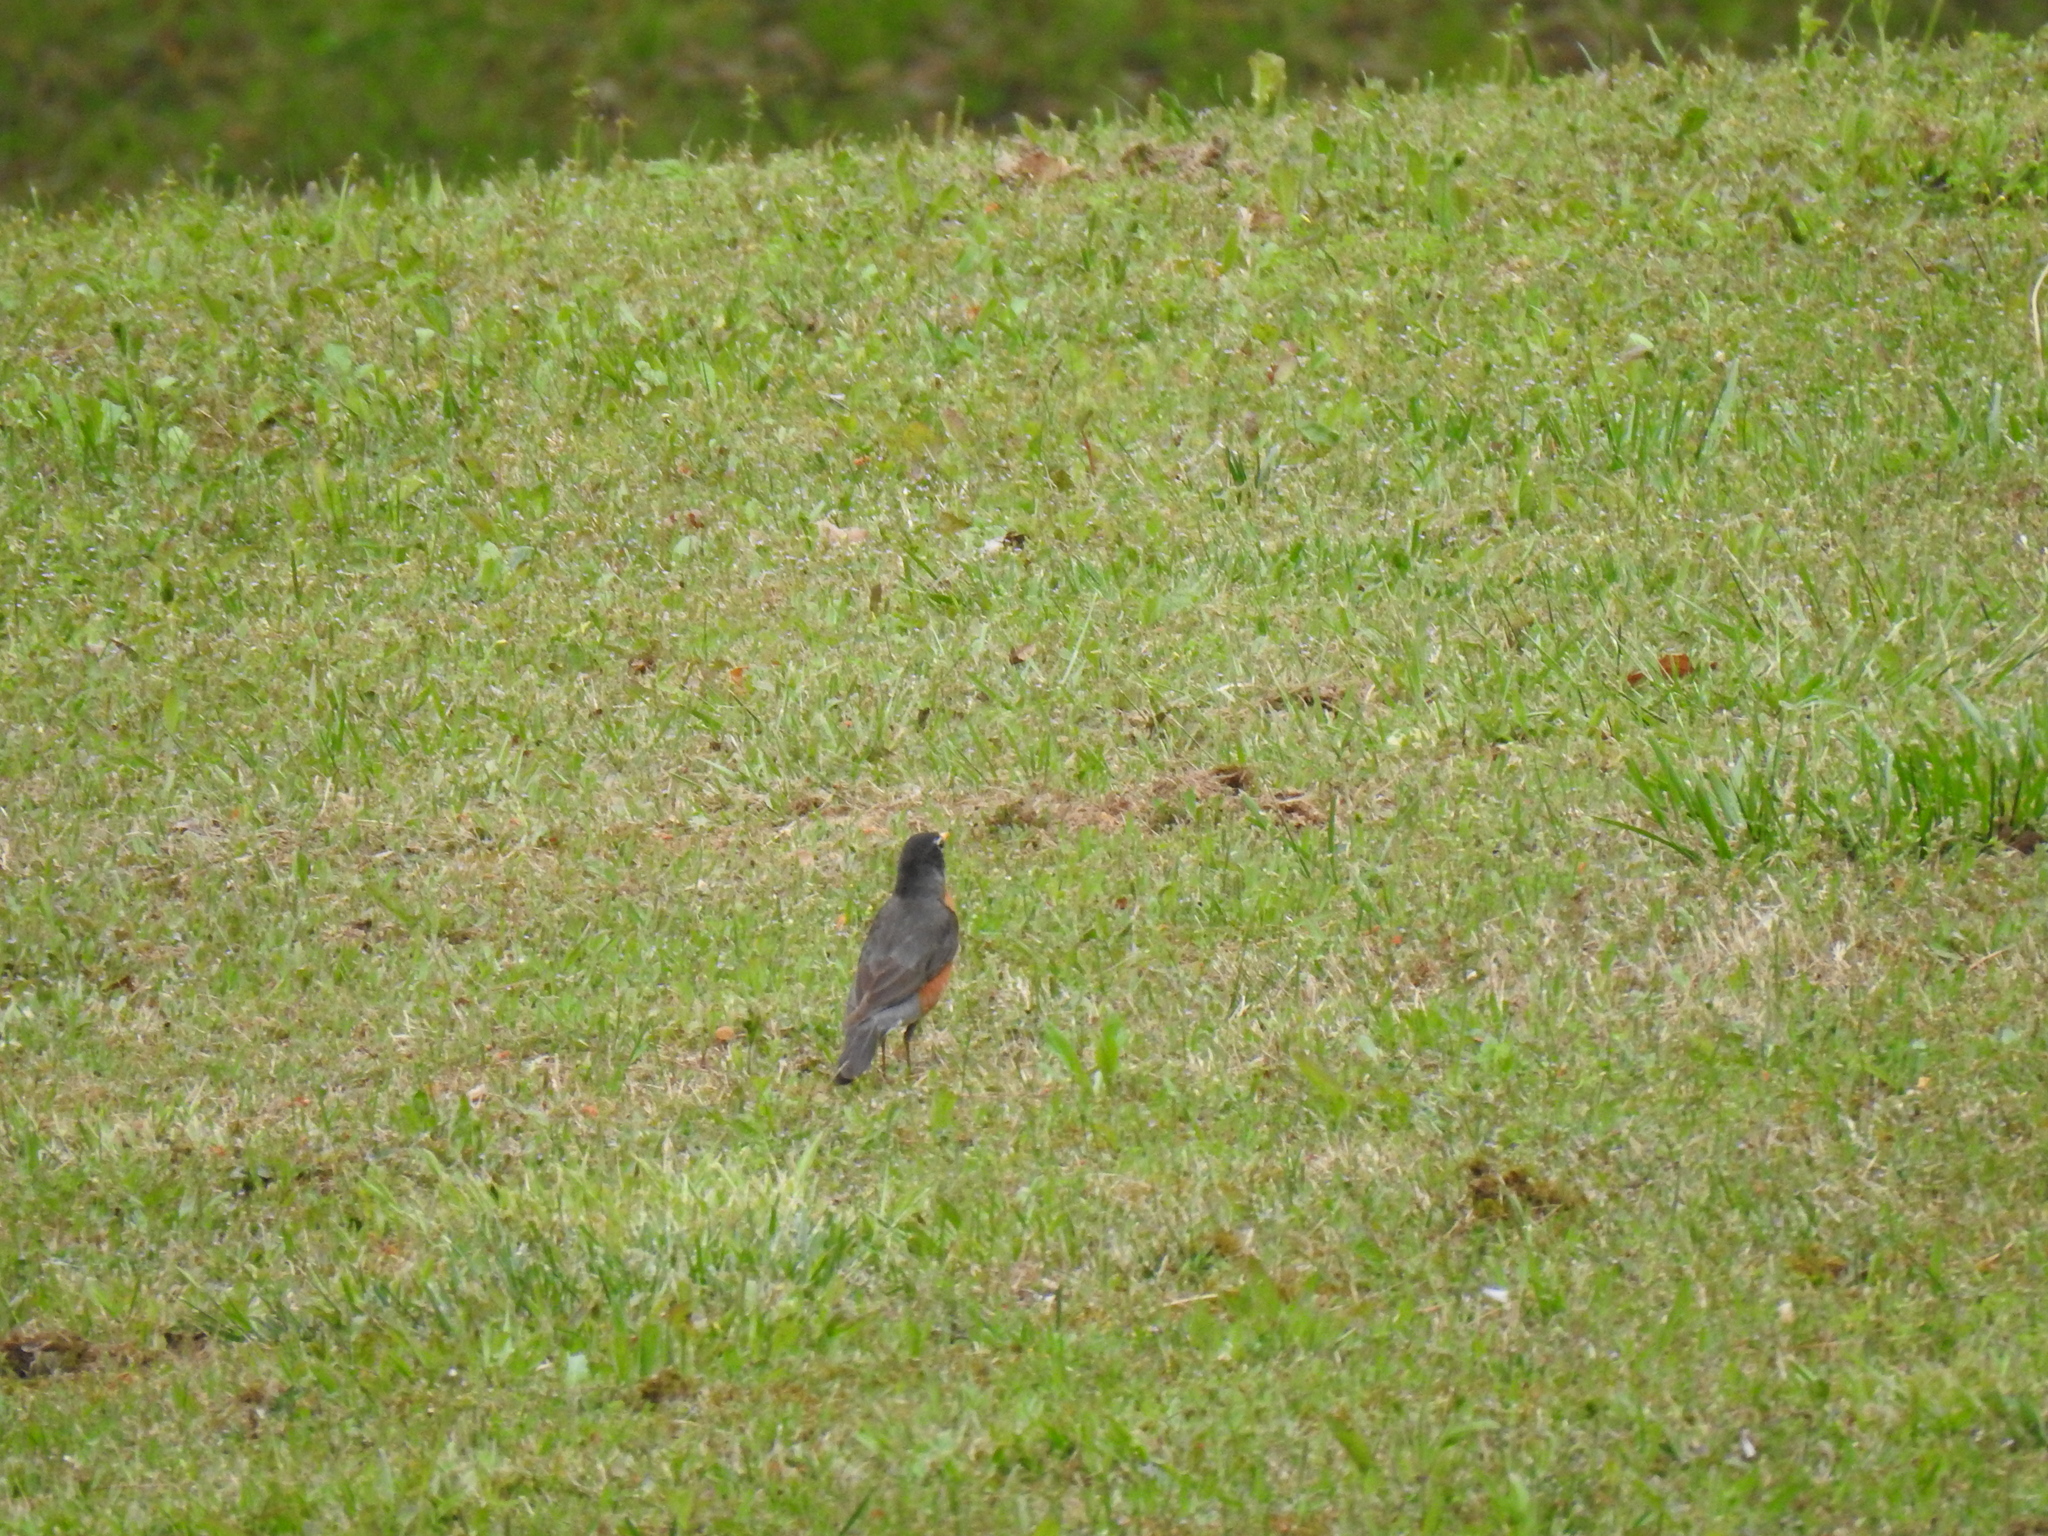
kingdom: Animalia
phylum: Chordata
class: Aves
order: Passeriformes
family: Turdidae
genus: Turdus
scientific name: Turdus migratorius
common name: American robin
